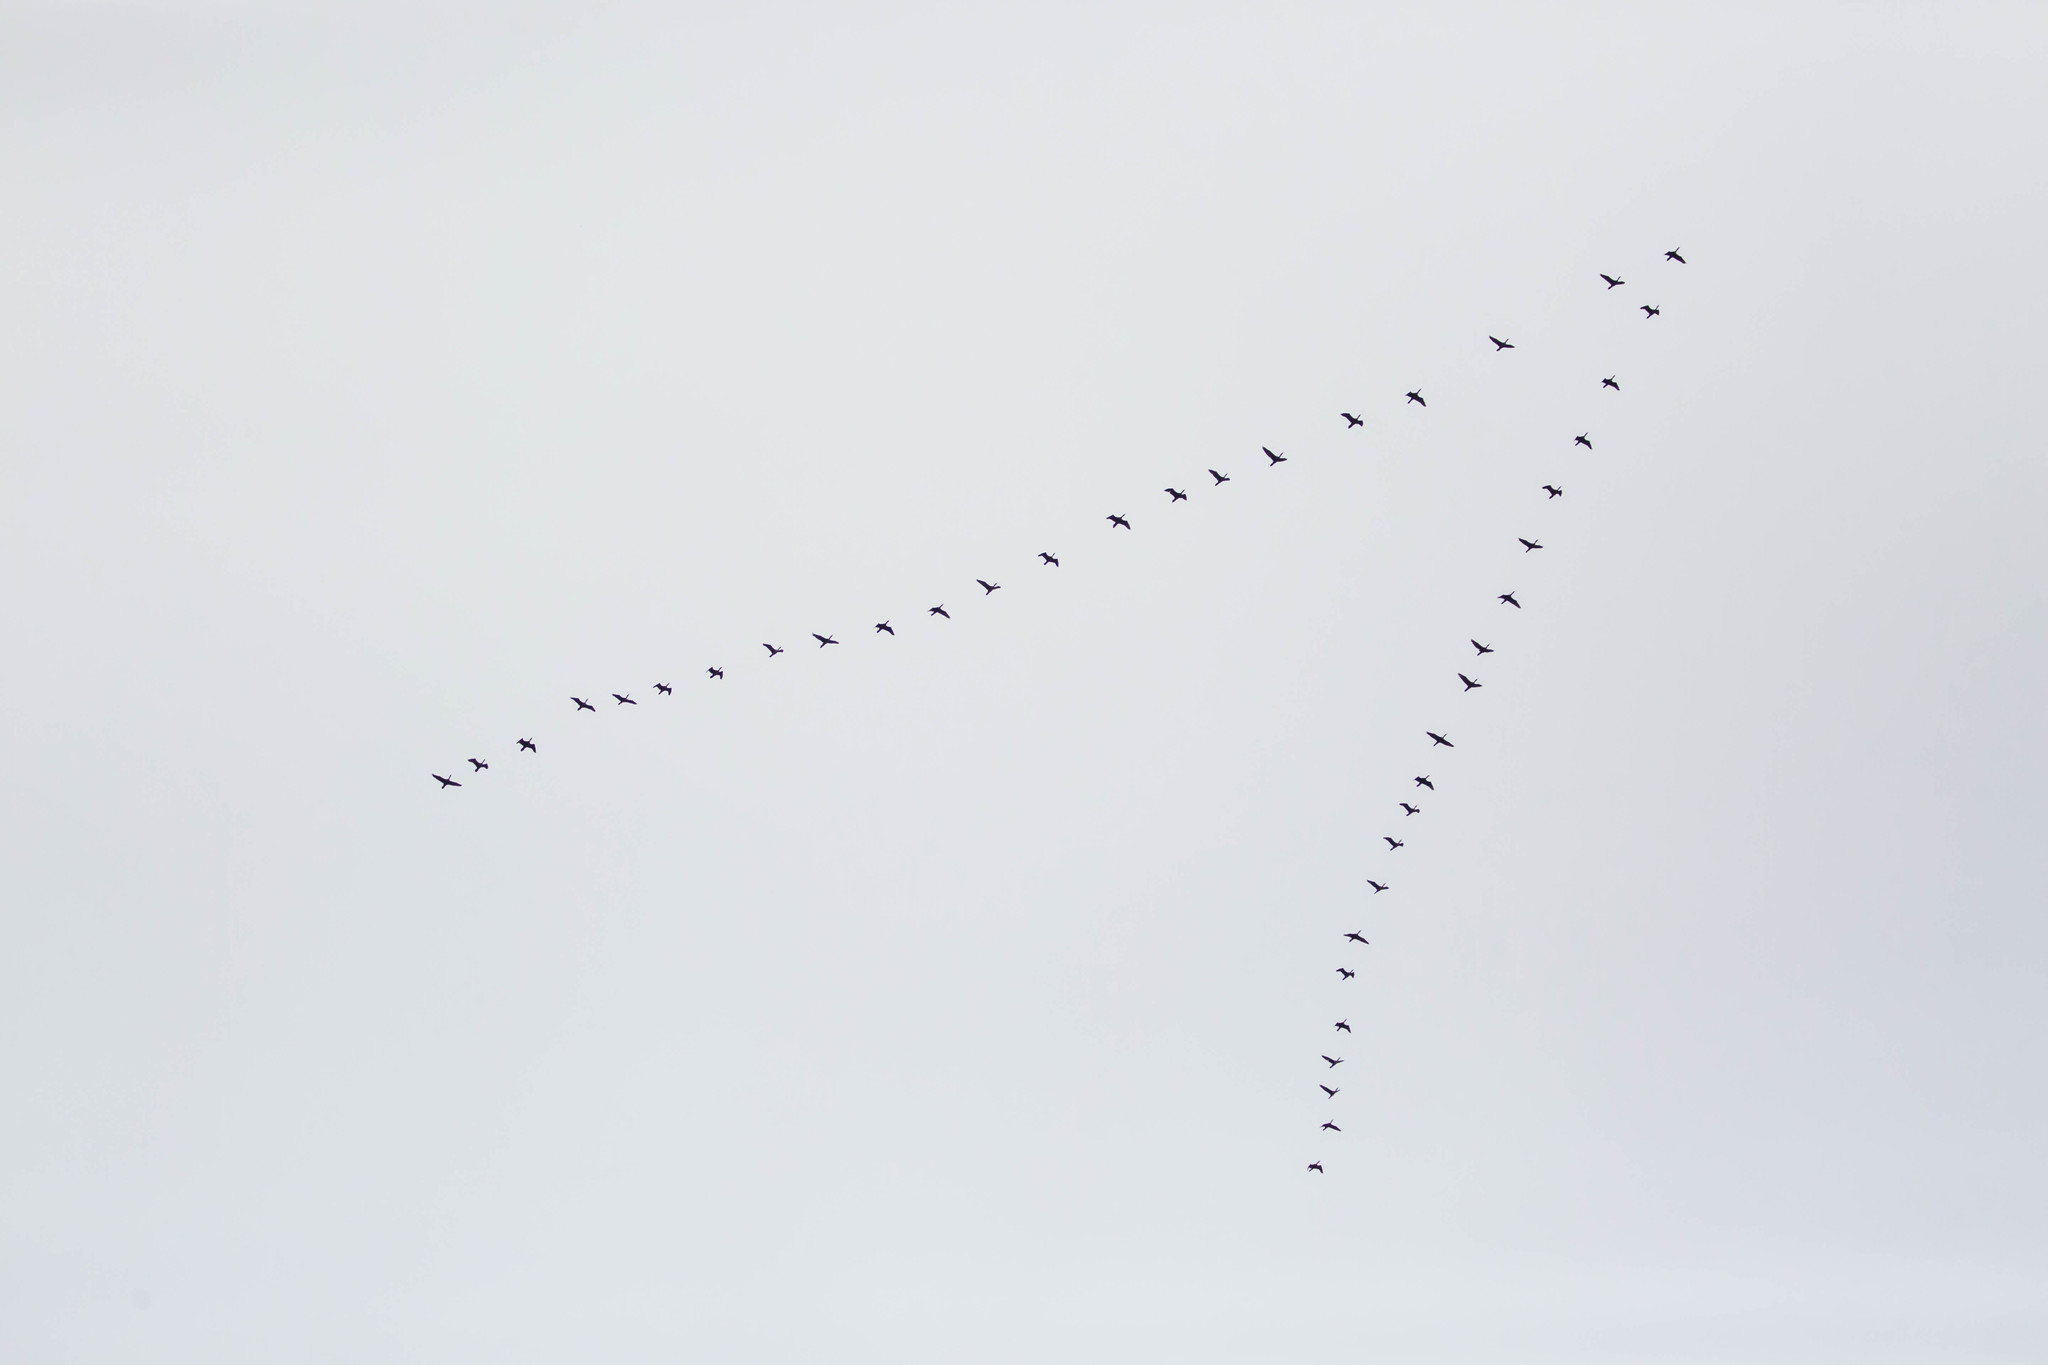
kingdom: Animalia
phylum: Chordata
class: Aves
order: Suliformes
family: Phalacrocoracidae
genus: Phalacrocorax
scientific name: Phalacrocorax auritus
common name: Double-crested cormorant
